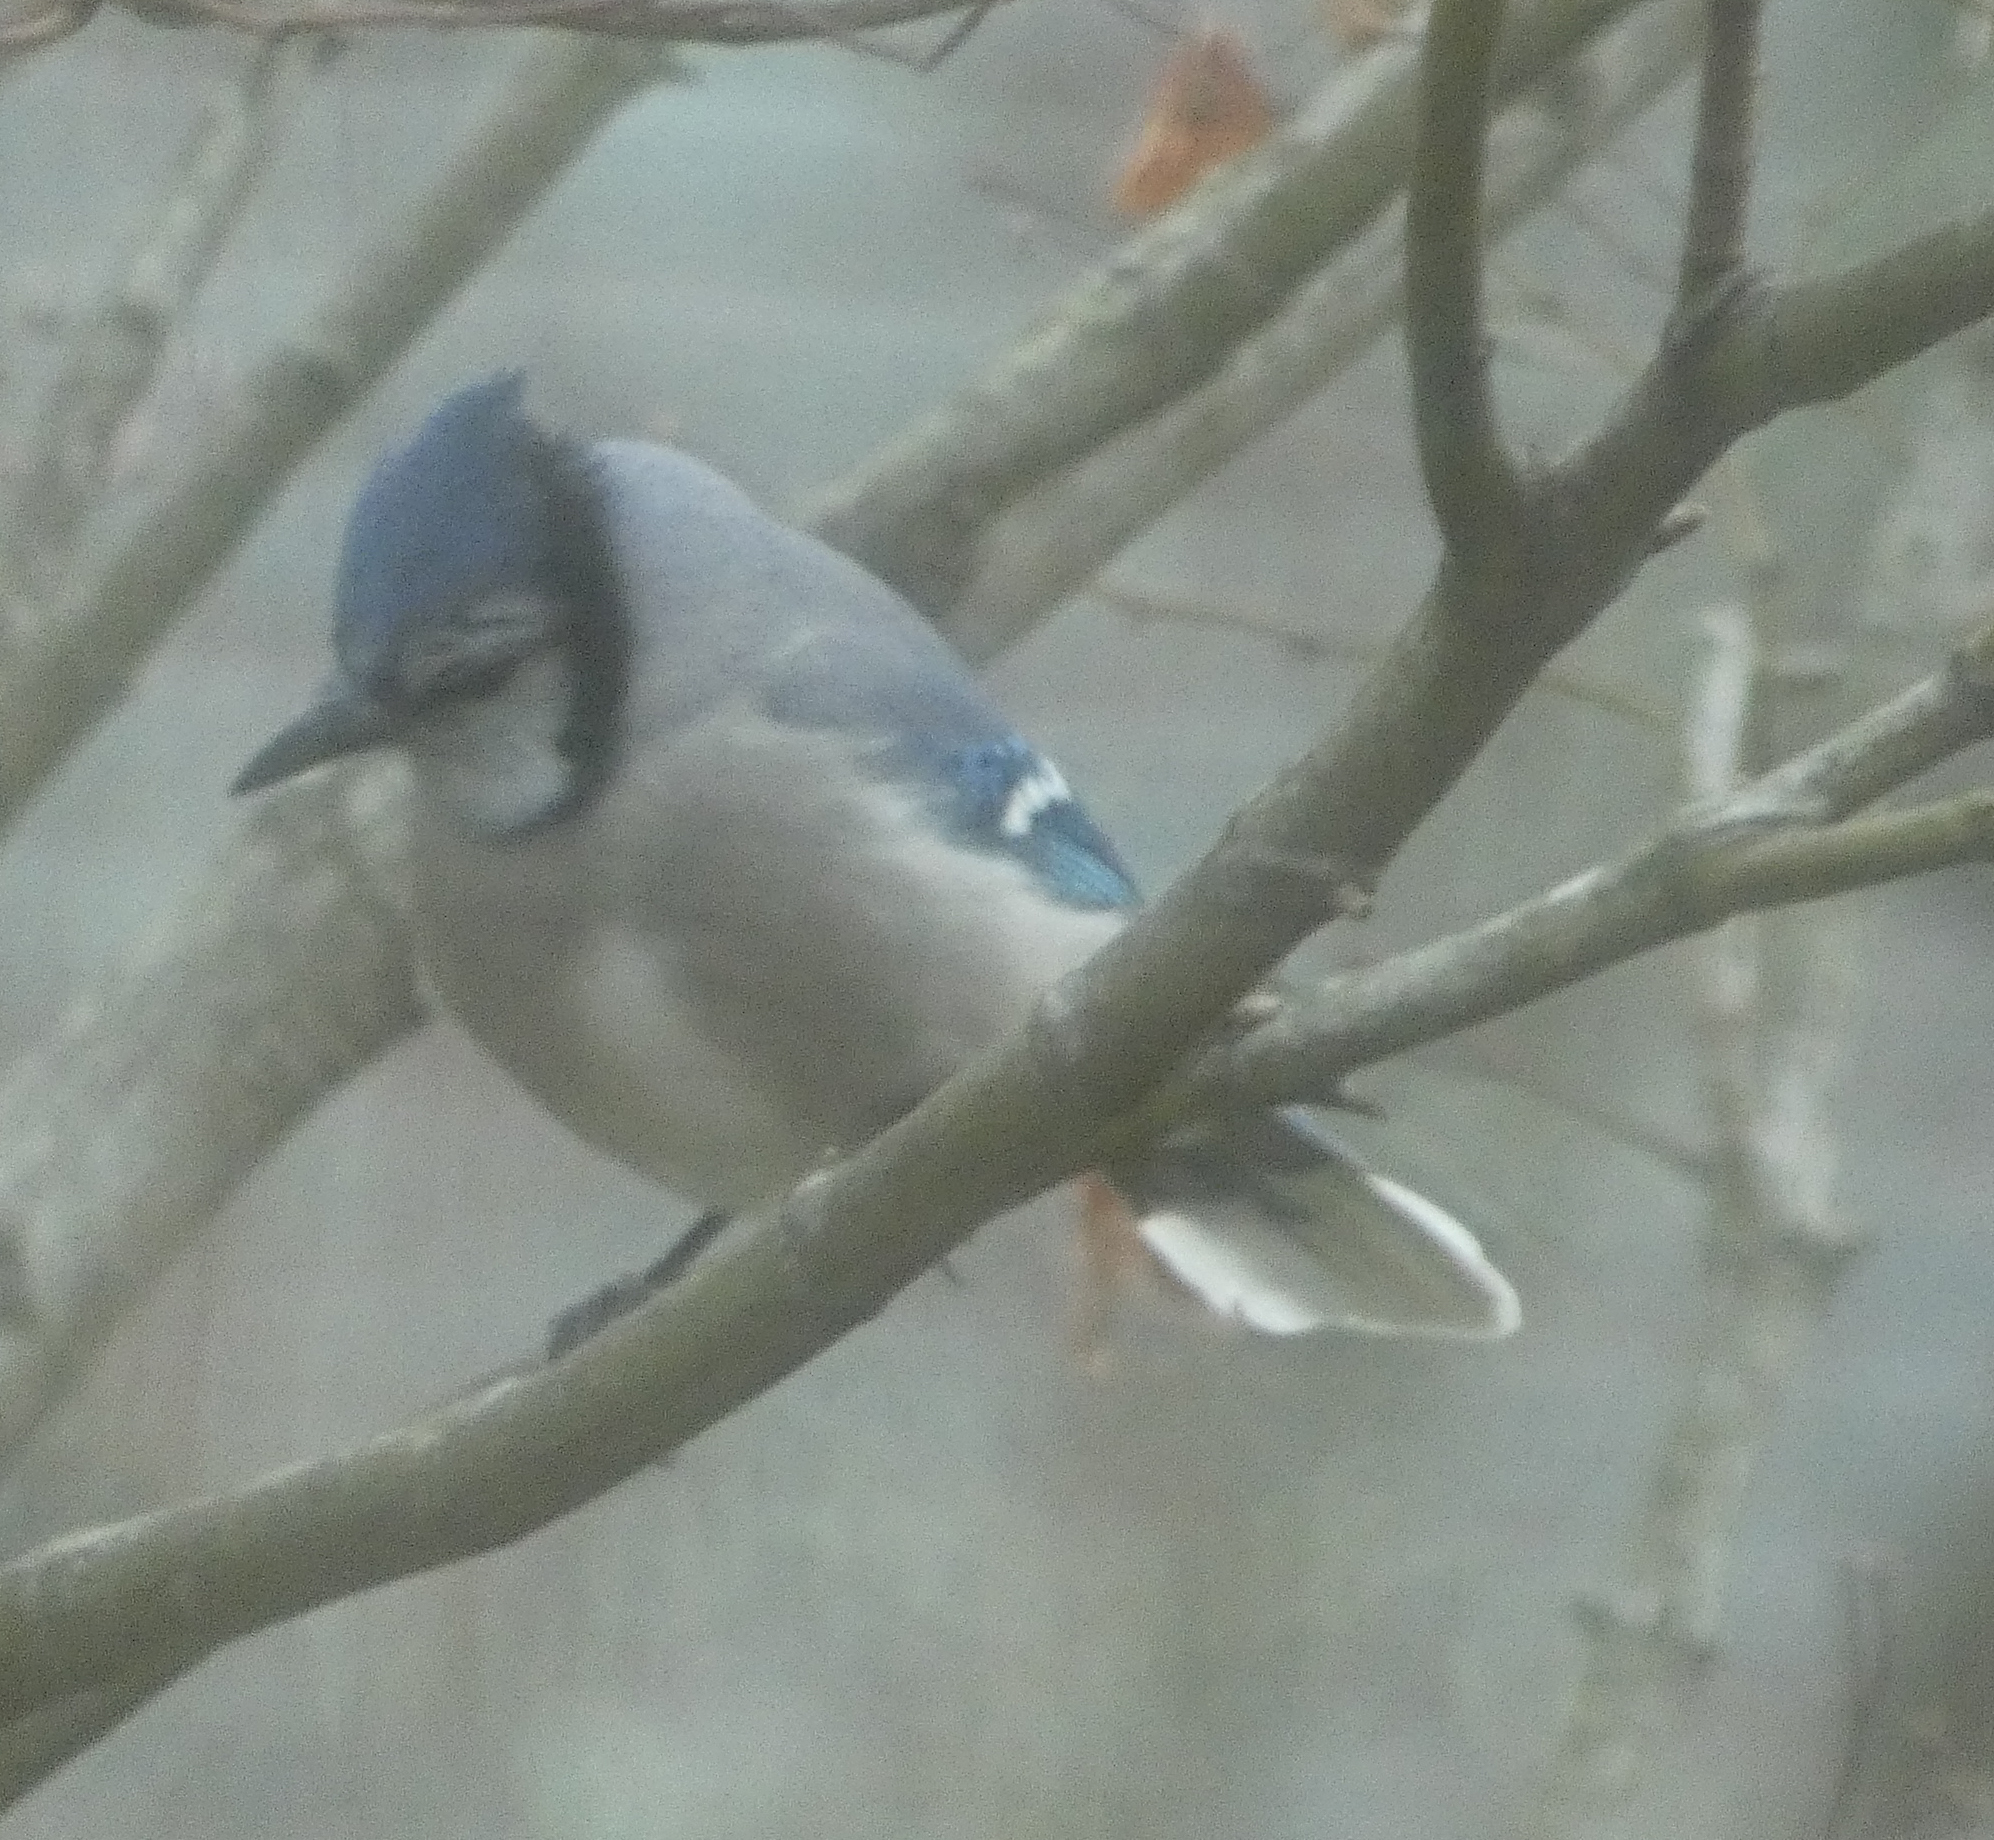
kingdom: Animalia
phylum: Chordata
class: Aves
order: Passeriformes
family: Corvidae
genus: Cyanocitta
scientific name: Cyanocitta cristata
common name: Blue jay
